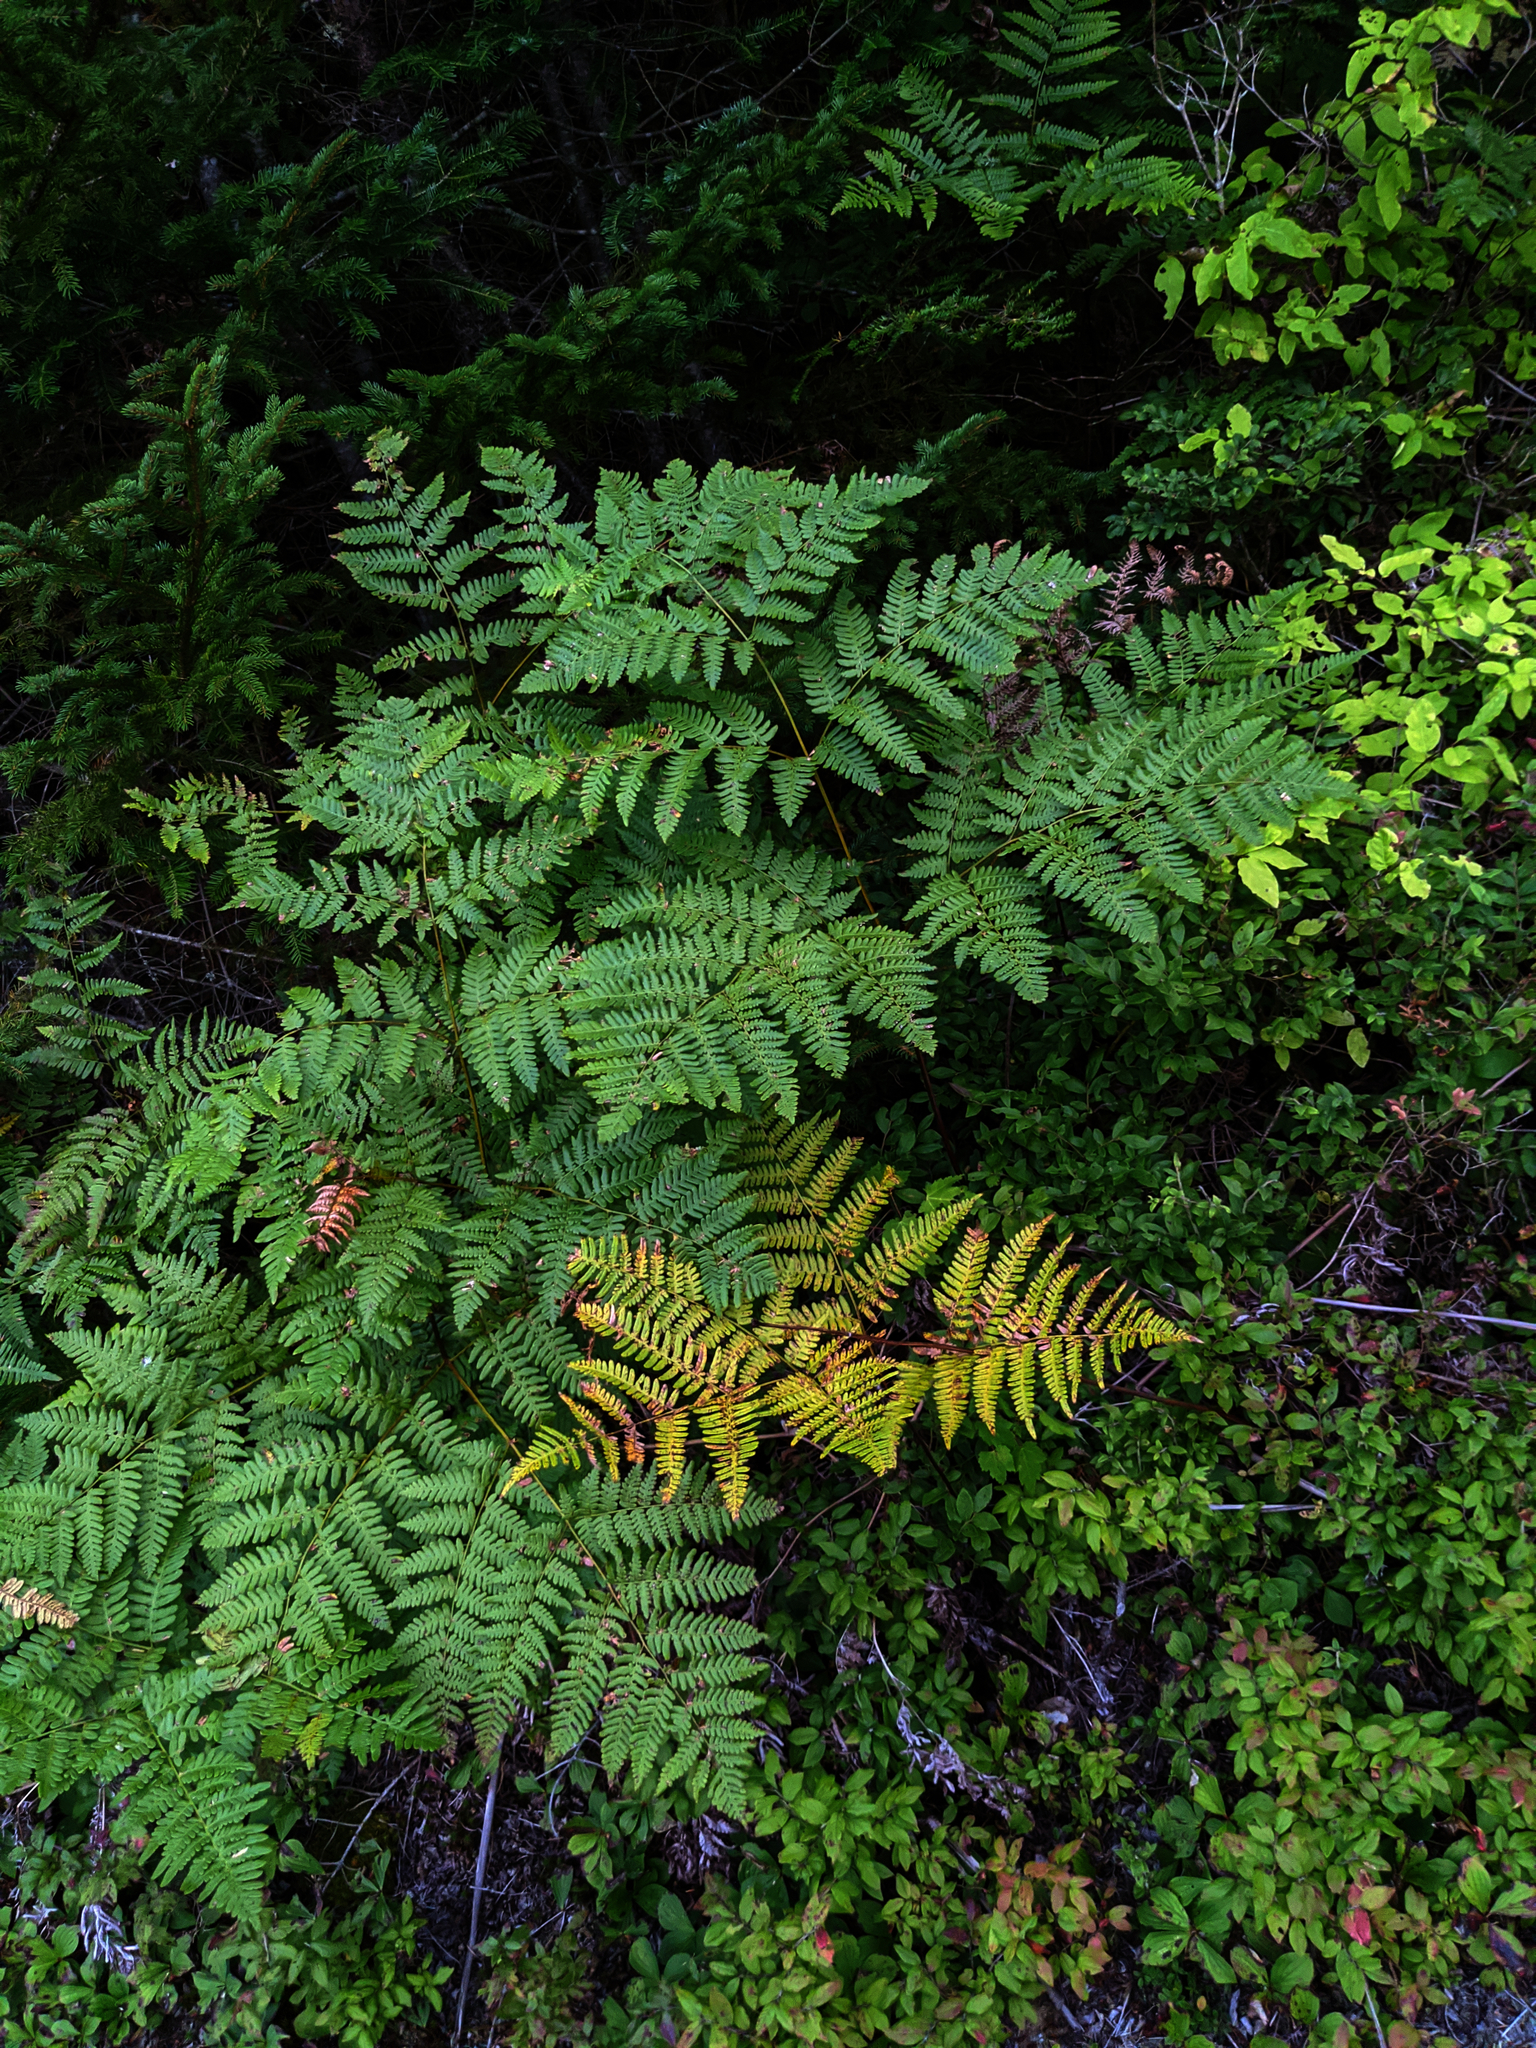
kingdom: Plantae
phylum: Tracheophyta
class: Polypodiopsida
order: Polypodiales
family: Dennstaedtiaceae
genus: Pteridium
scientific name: Pteridium aquilinum
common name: Bracken
